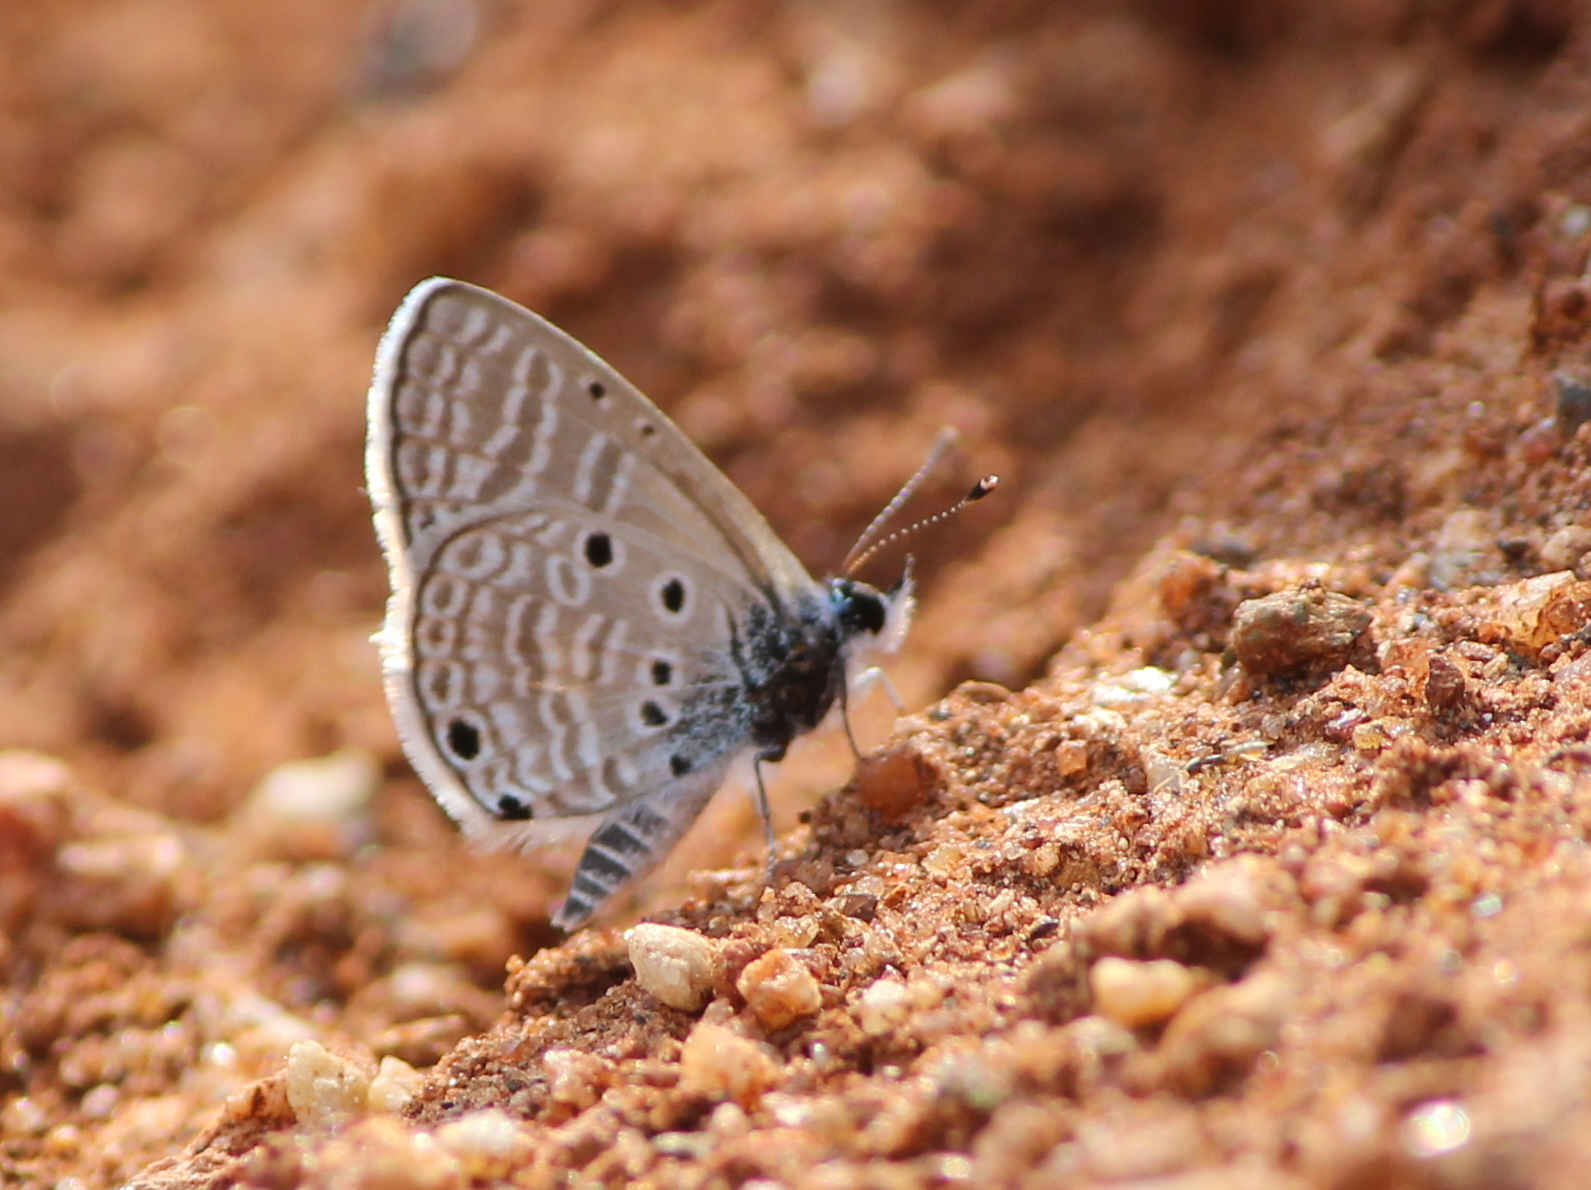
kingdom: Animalia
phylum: Arthropoda
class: Insecta
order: Lepidoptera
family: Lycaenidae
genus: Azanus
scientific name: Azanus ubaldus
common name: Desert babul blue
